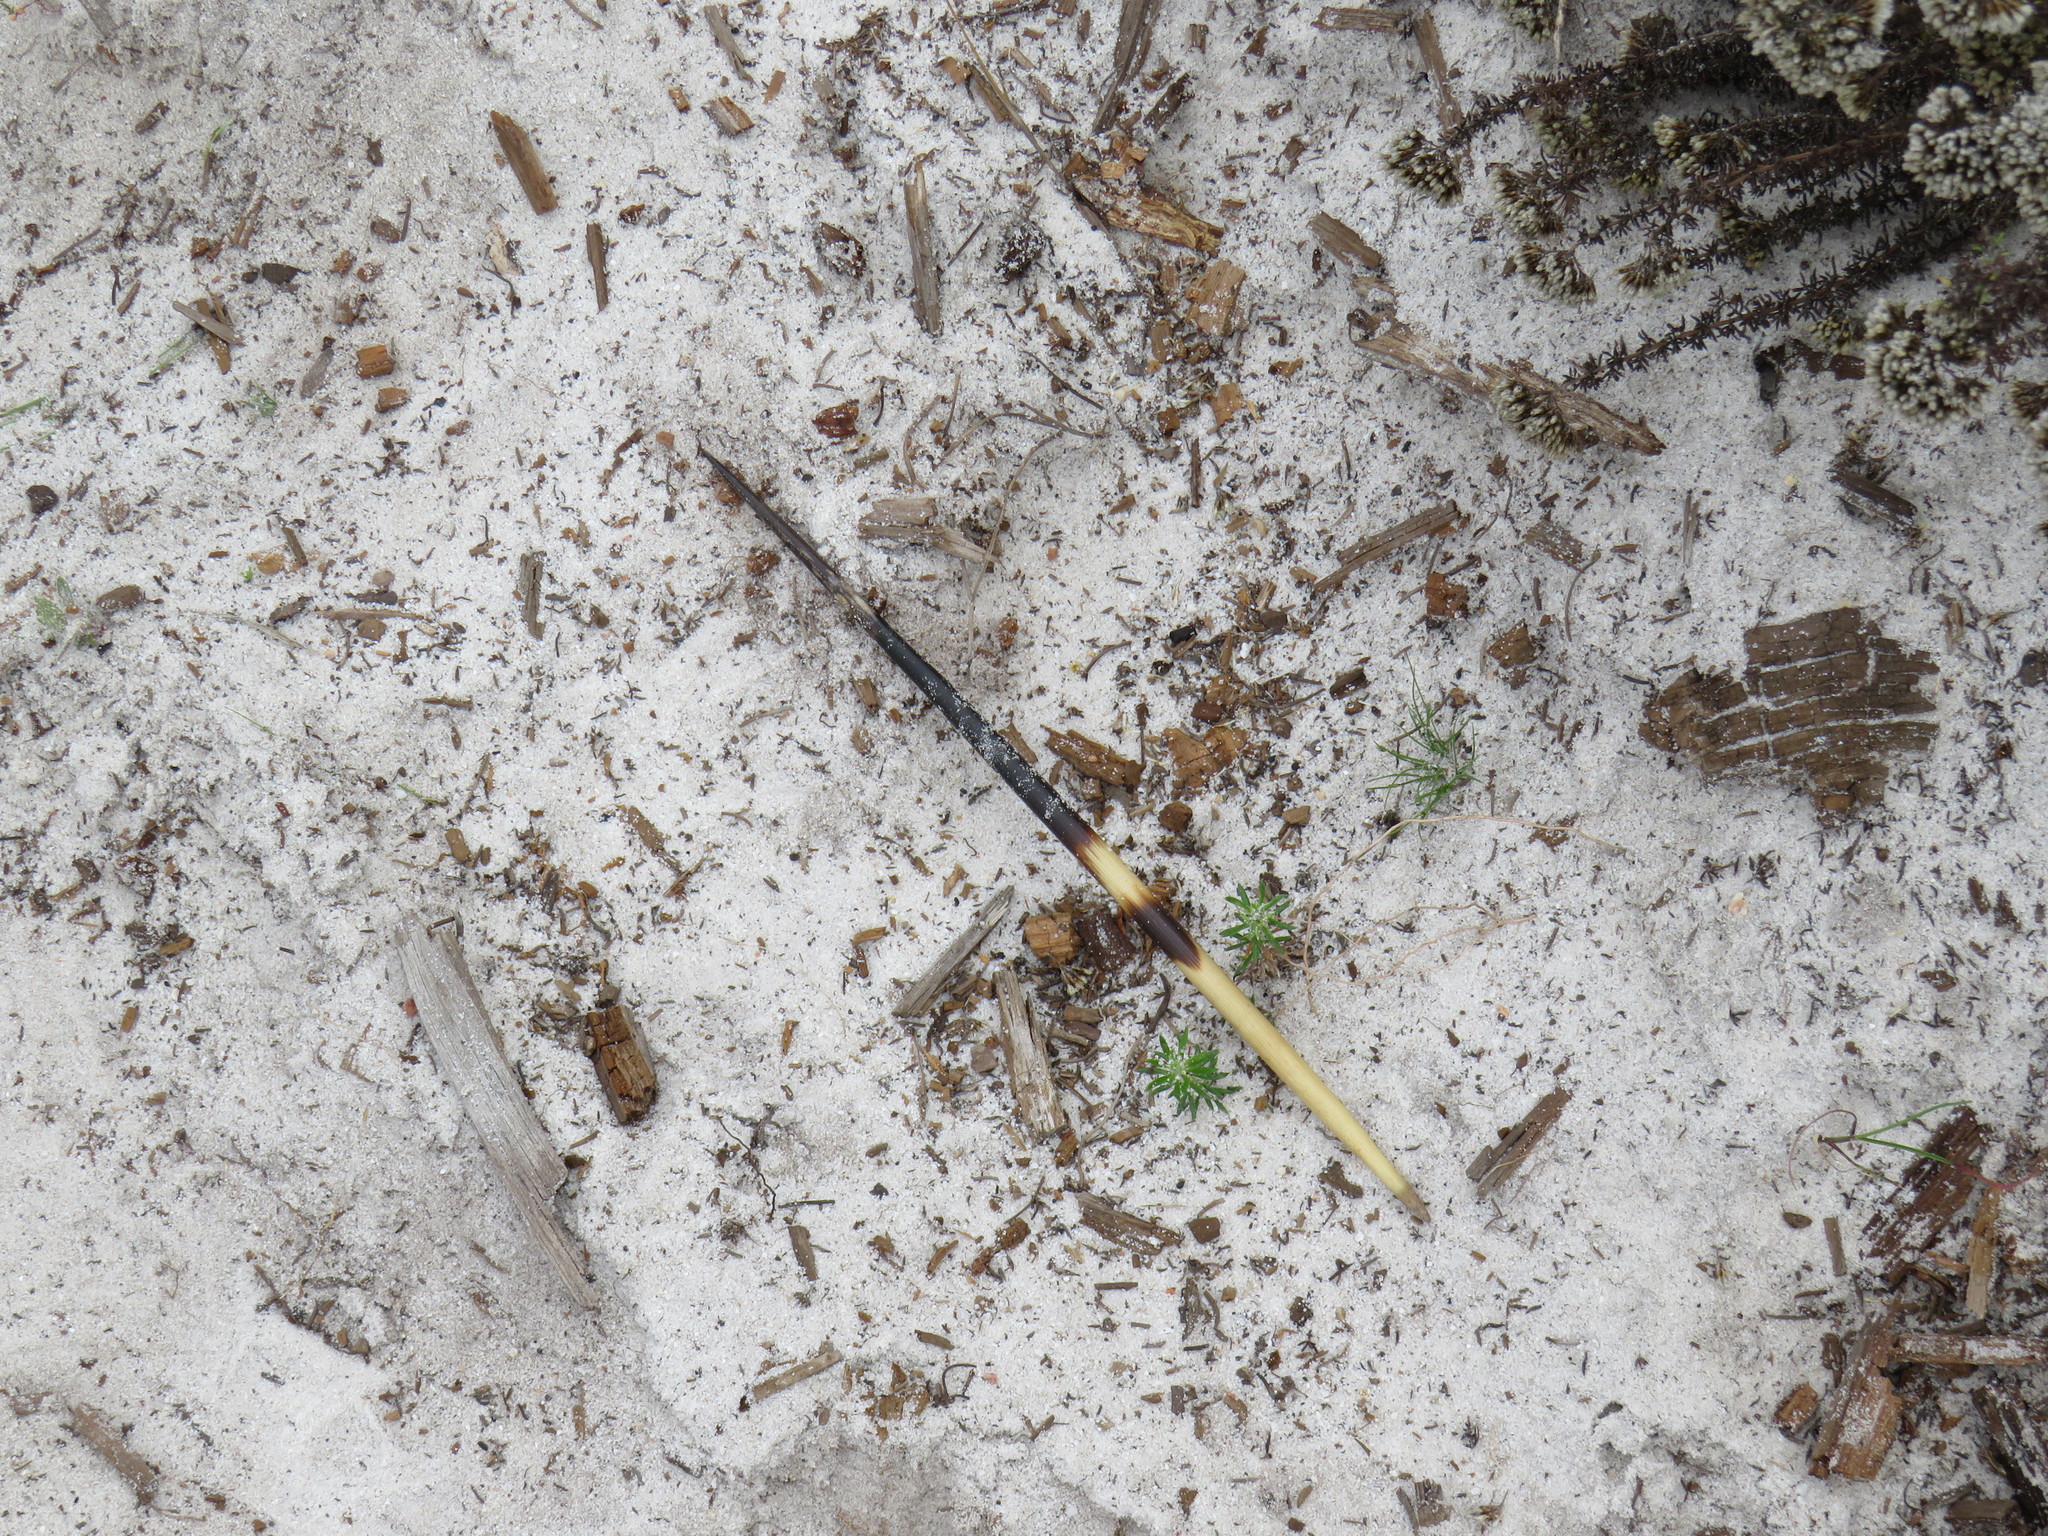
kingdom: Animalia
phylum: Chordata
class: Mammalia
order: Rodentia
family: Hystricidae
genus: Hystrix
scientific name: Hystrix africaeaustralis
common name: Cape porcupine
